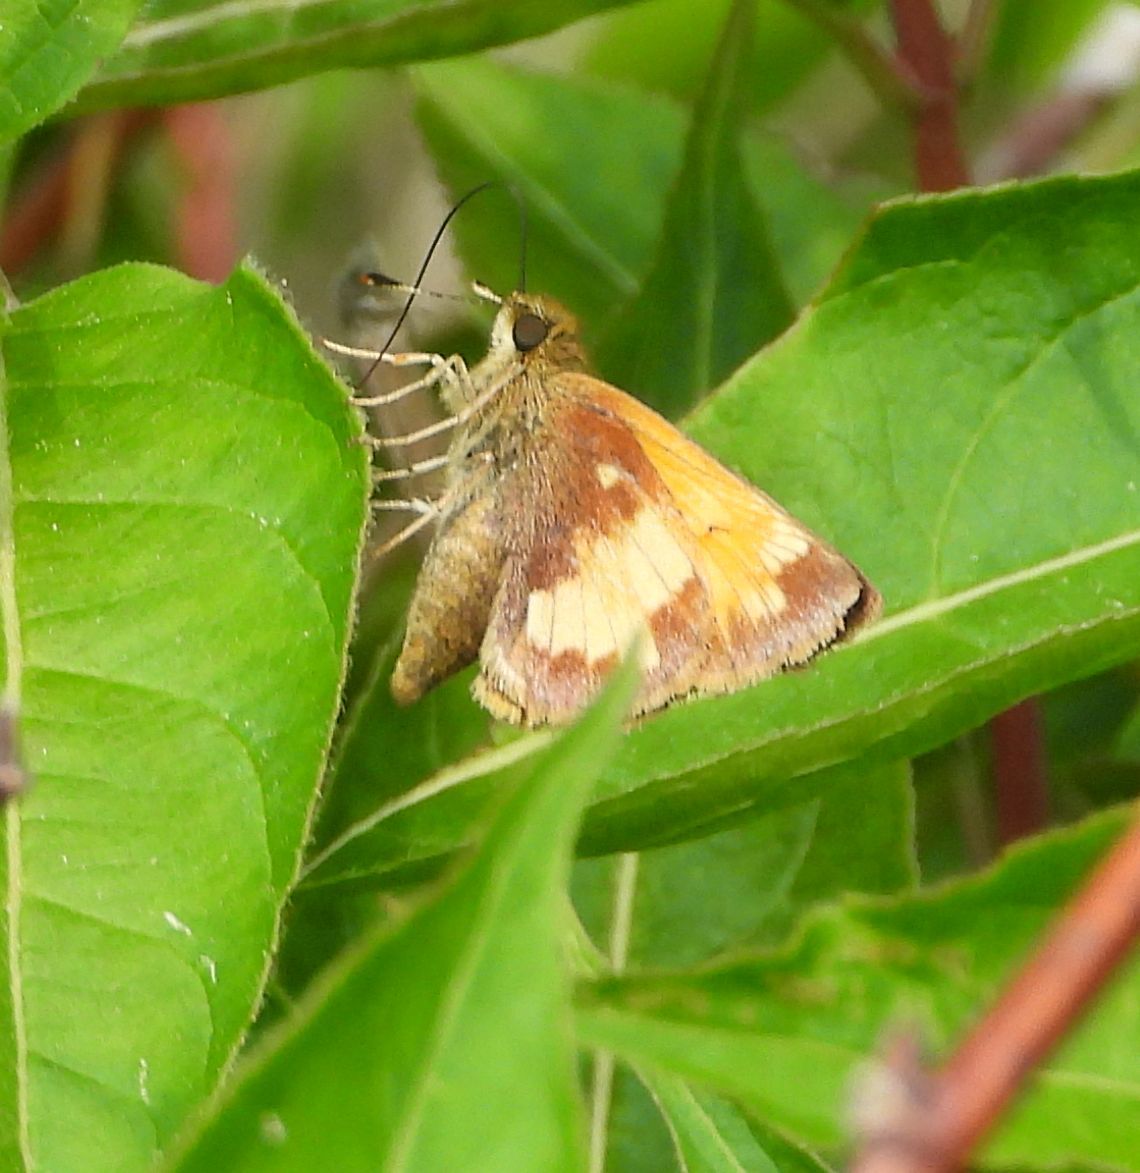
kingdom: Animalia
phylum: Arthropoda
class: Insecta
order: Lepidoptera
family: Hesperiidae
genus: Lon
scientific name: Lon hobomok
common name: Hobomok skipper
